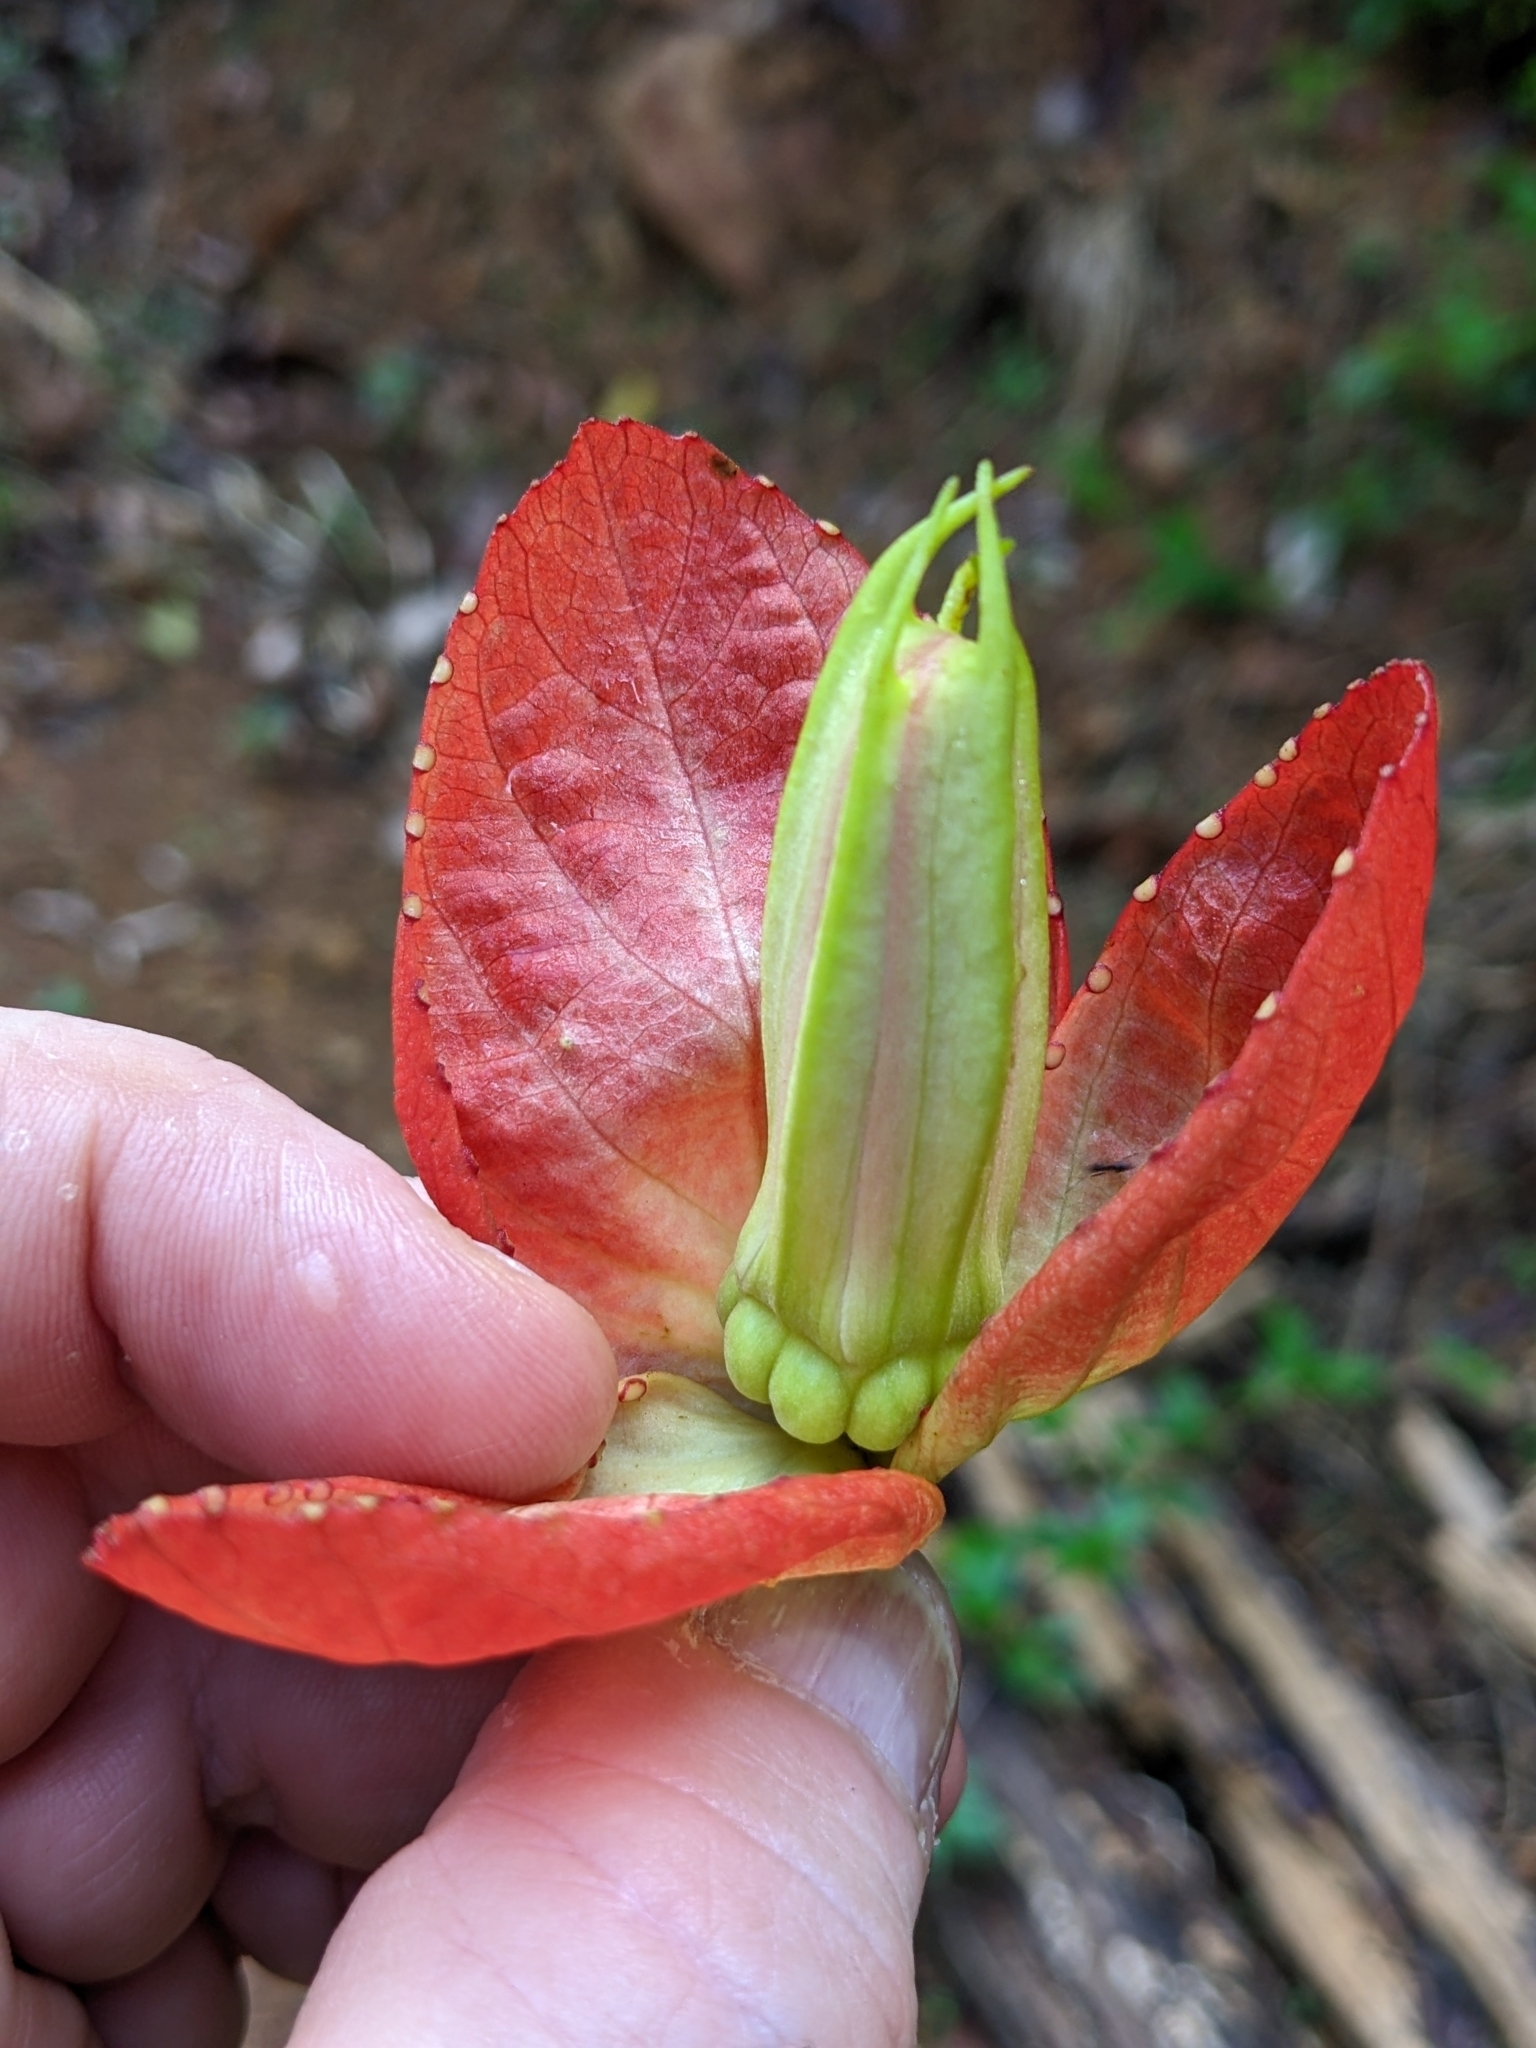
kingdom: Plantae
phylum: Tracheophyta
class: Magnoliopsida
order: Malpighiales
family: Passifloraceae
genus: Passiflora
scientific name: Passiflora coccinea
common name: Scarlet passionflower
